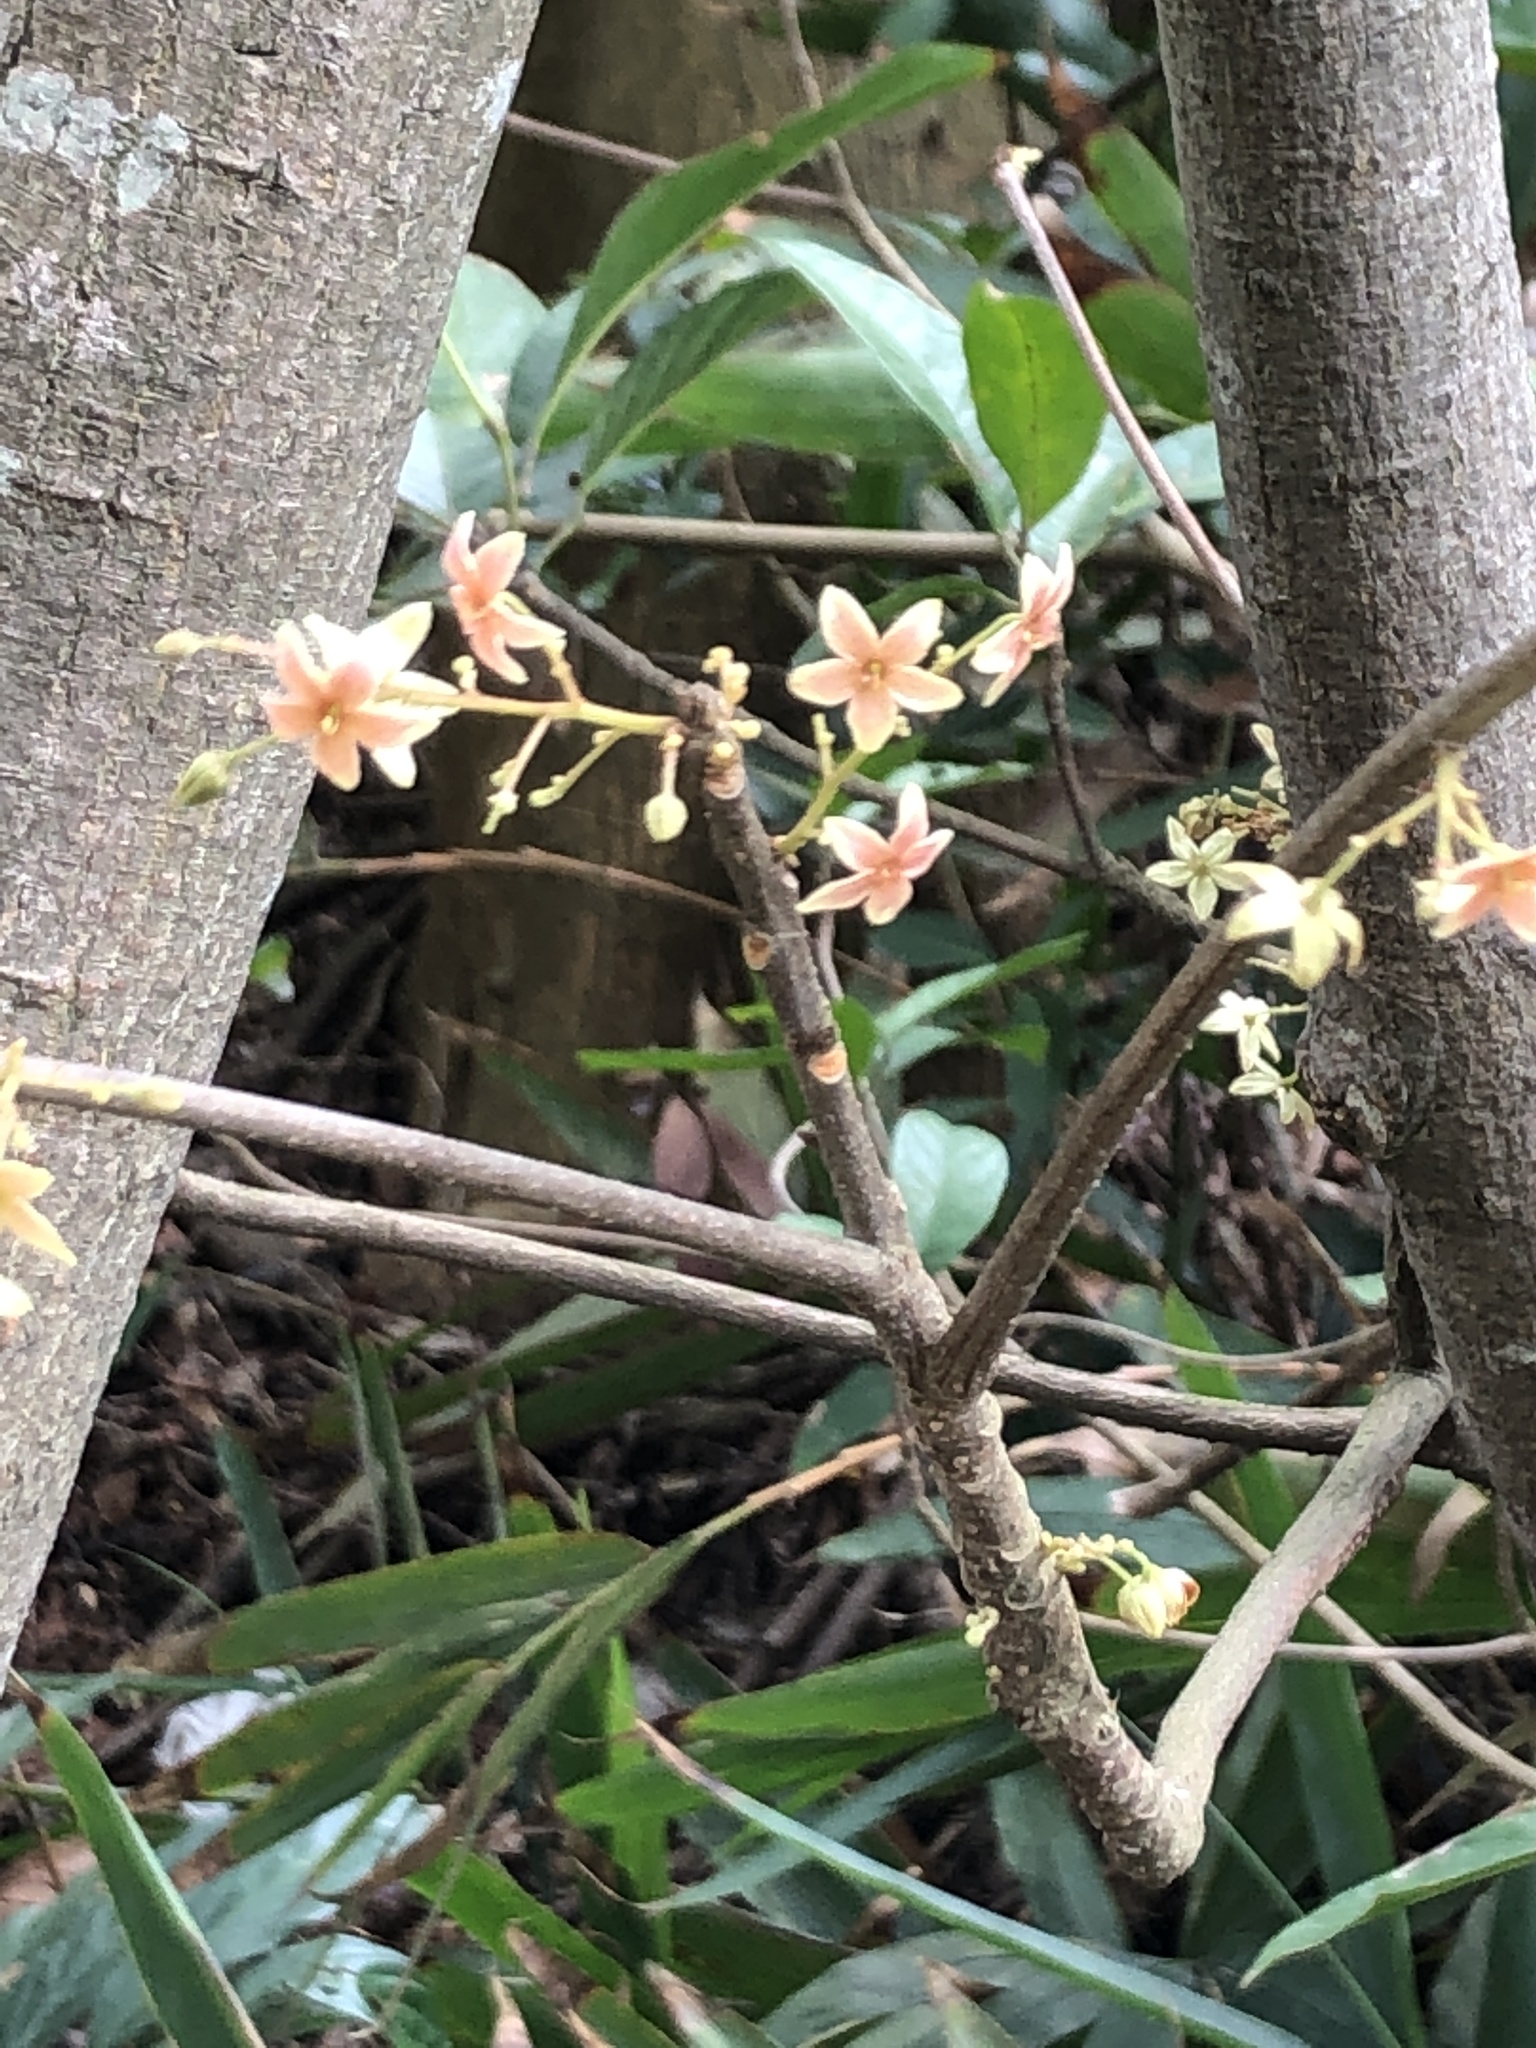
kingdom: Plantae
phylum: Tracheophyta
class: Magnoliopsida
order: Malvales
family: Malvaceae
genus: Sterculia
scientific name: Sterculia lanceolata
